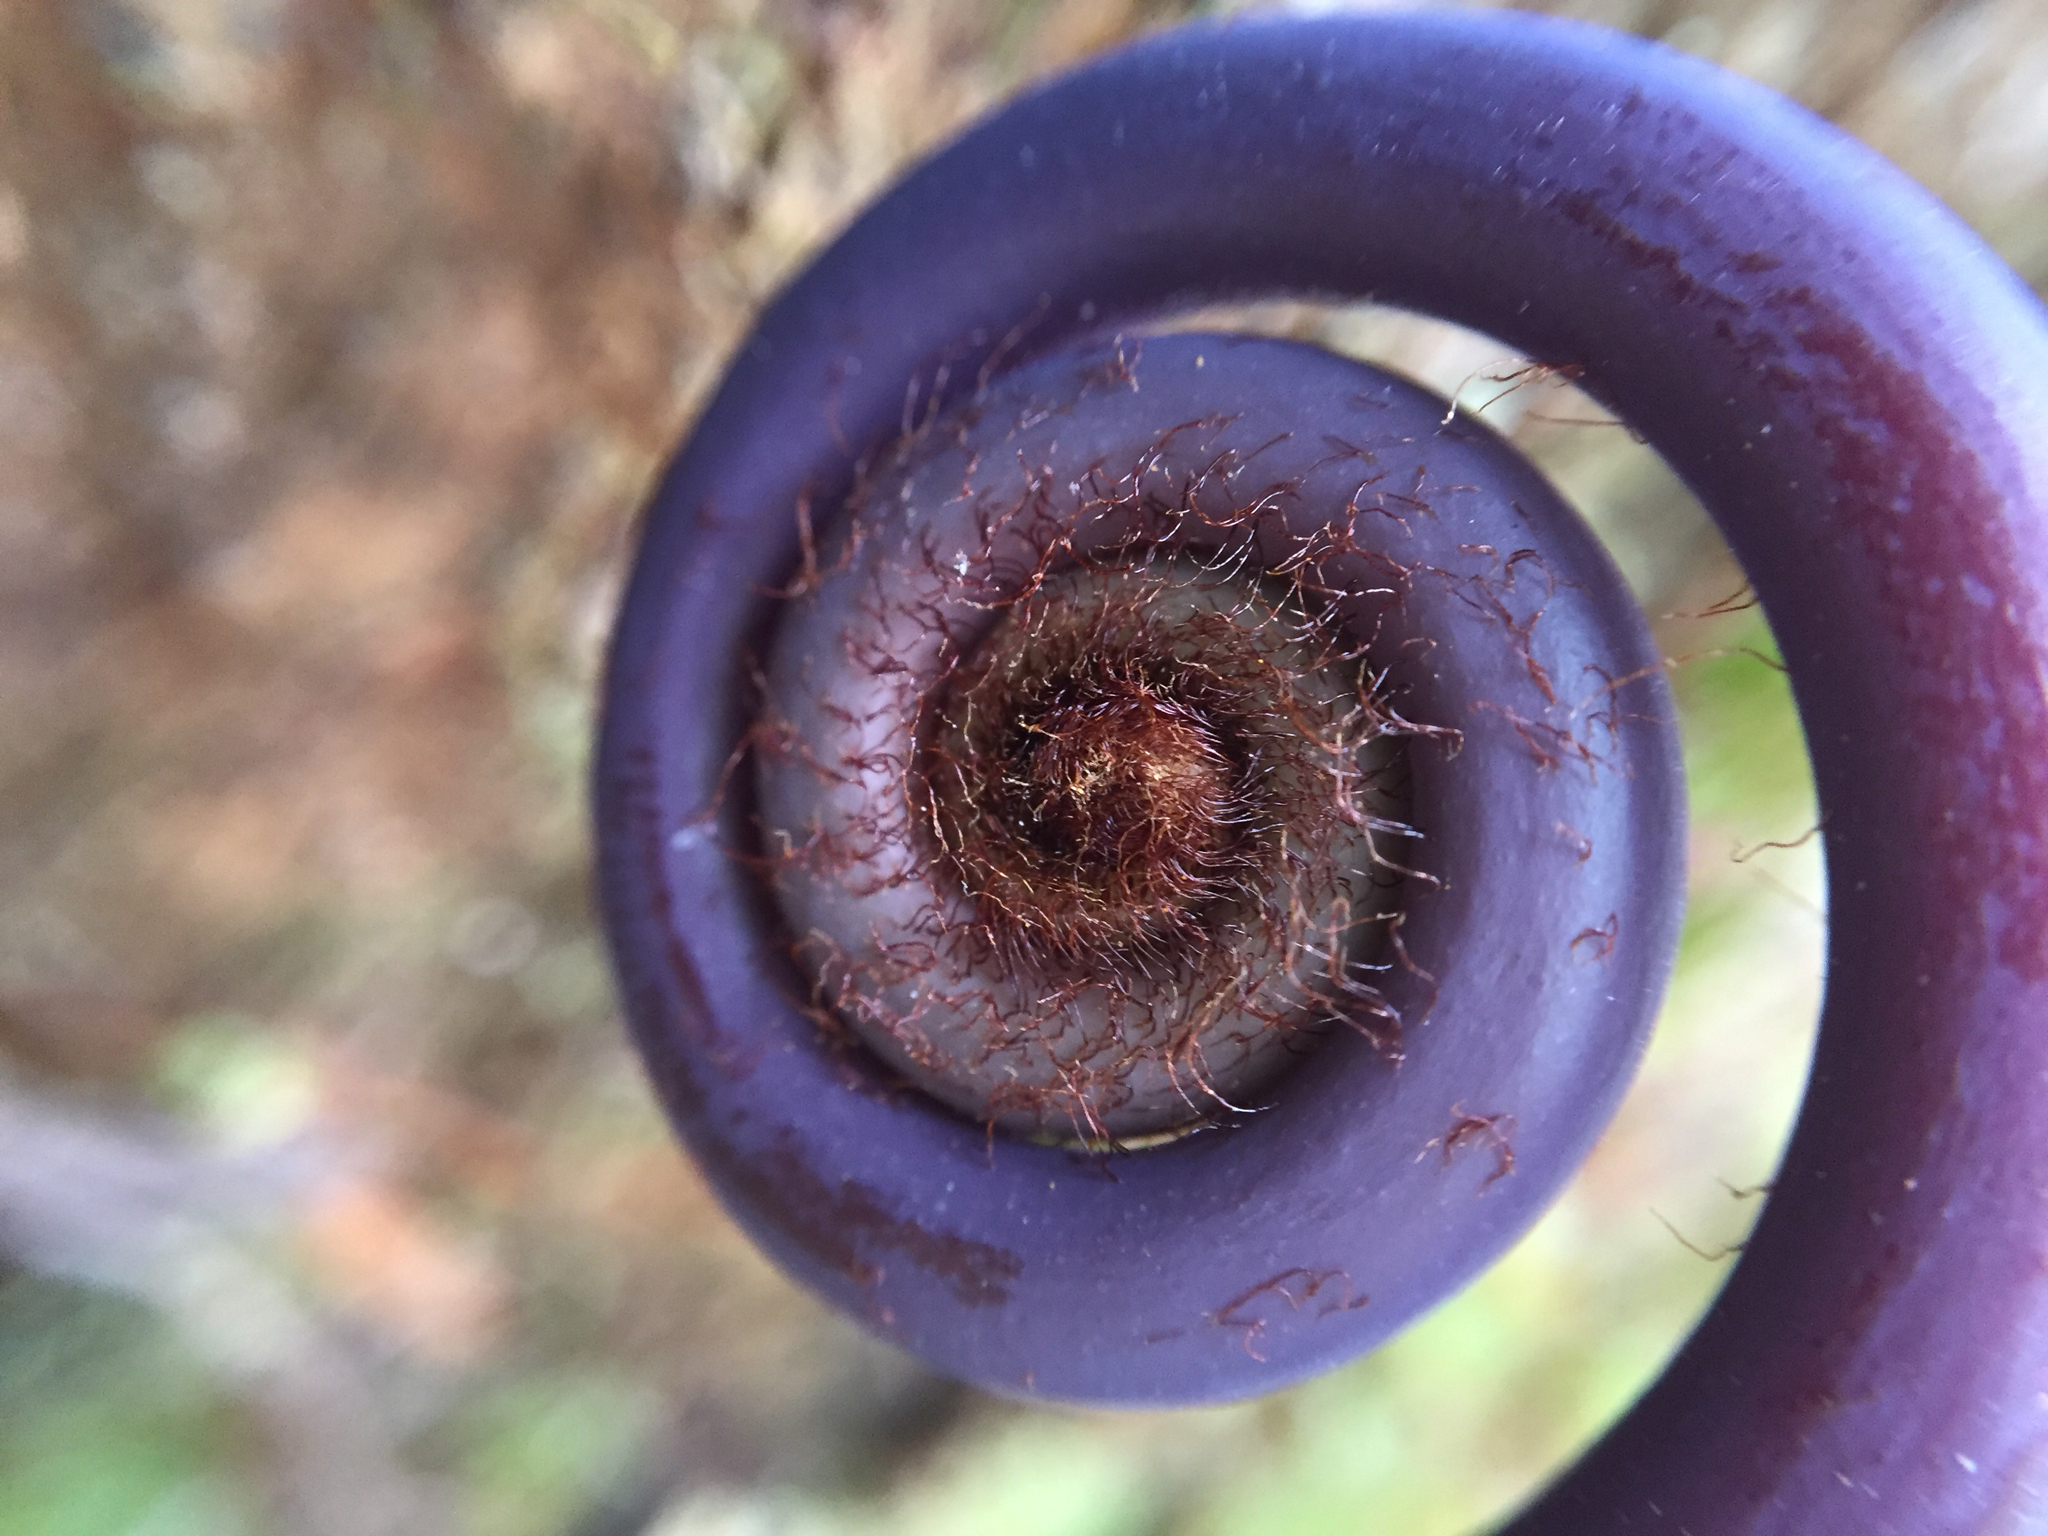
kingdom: Plantae
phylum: Tracheophyta
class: Polypodiopsida
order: Gleicheniales
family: Gleicheniaceae
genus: Dicranopteris
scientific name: Dicranopteris linearis
